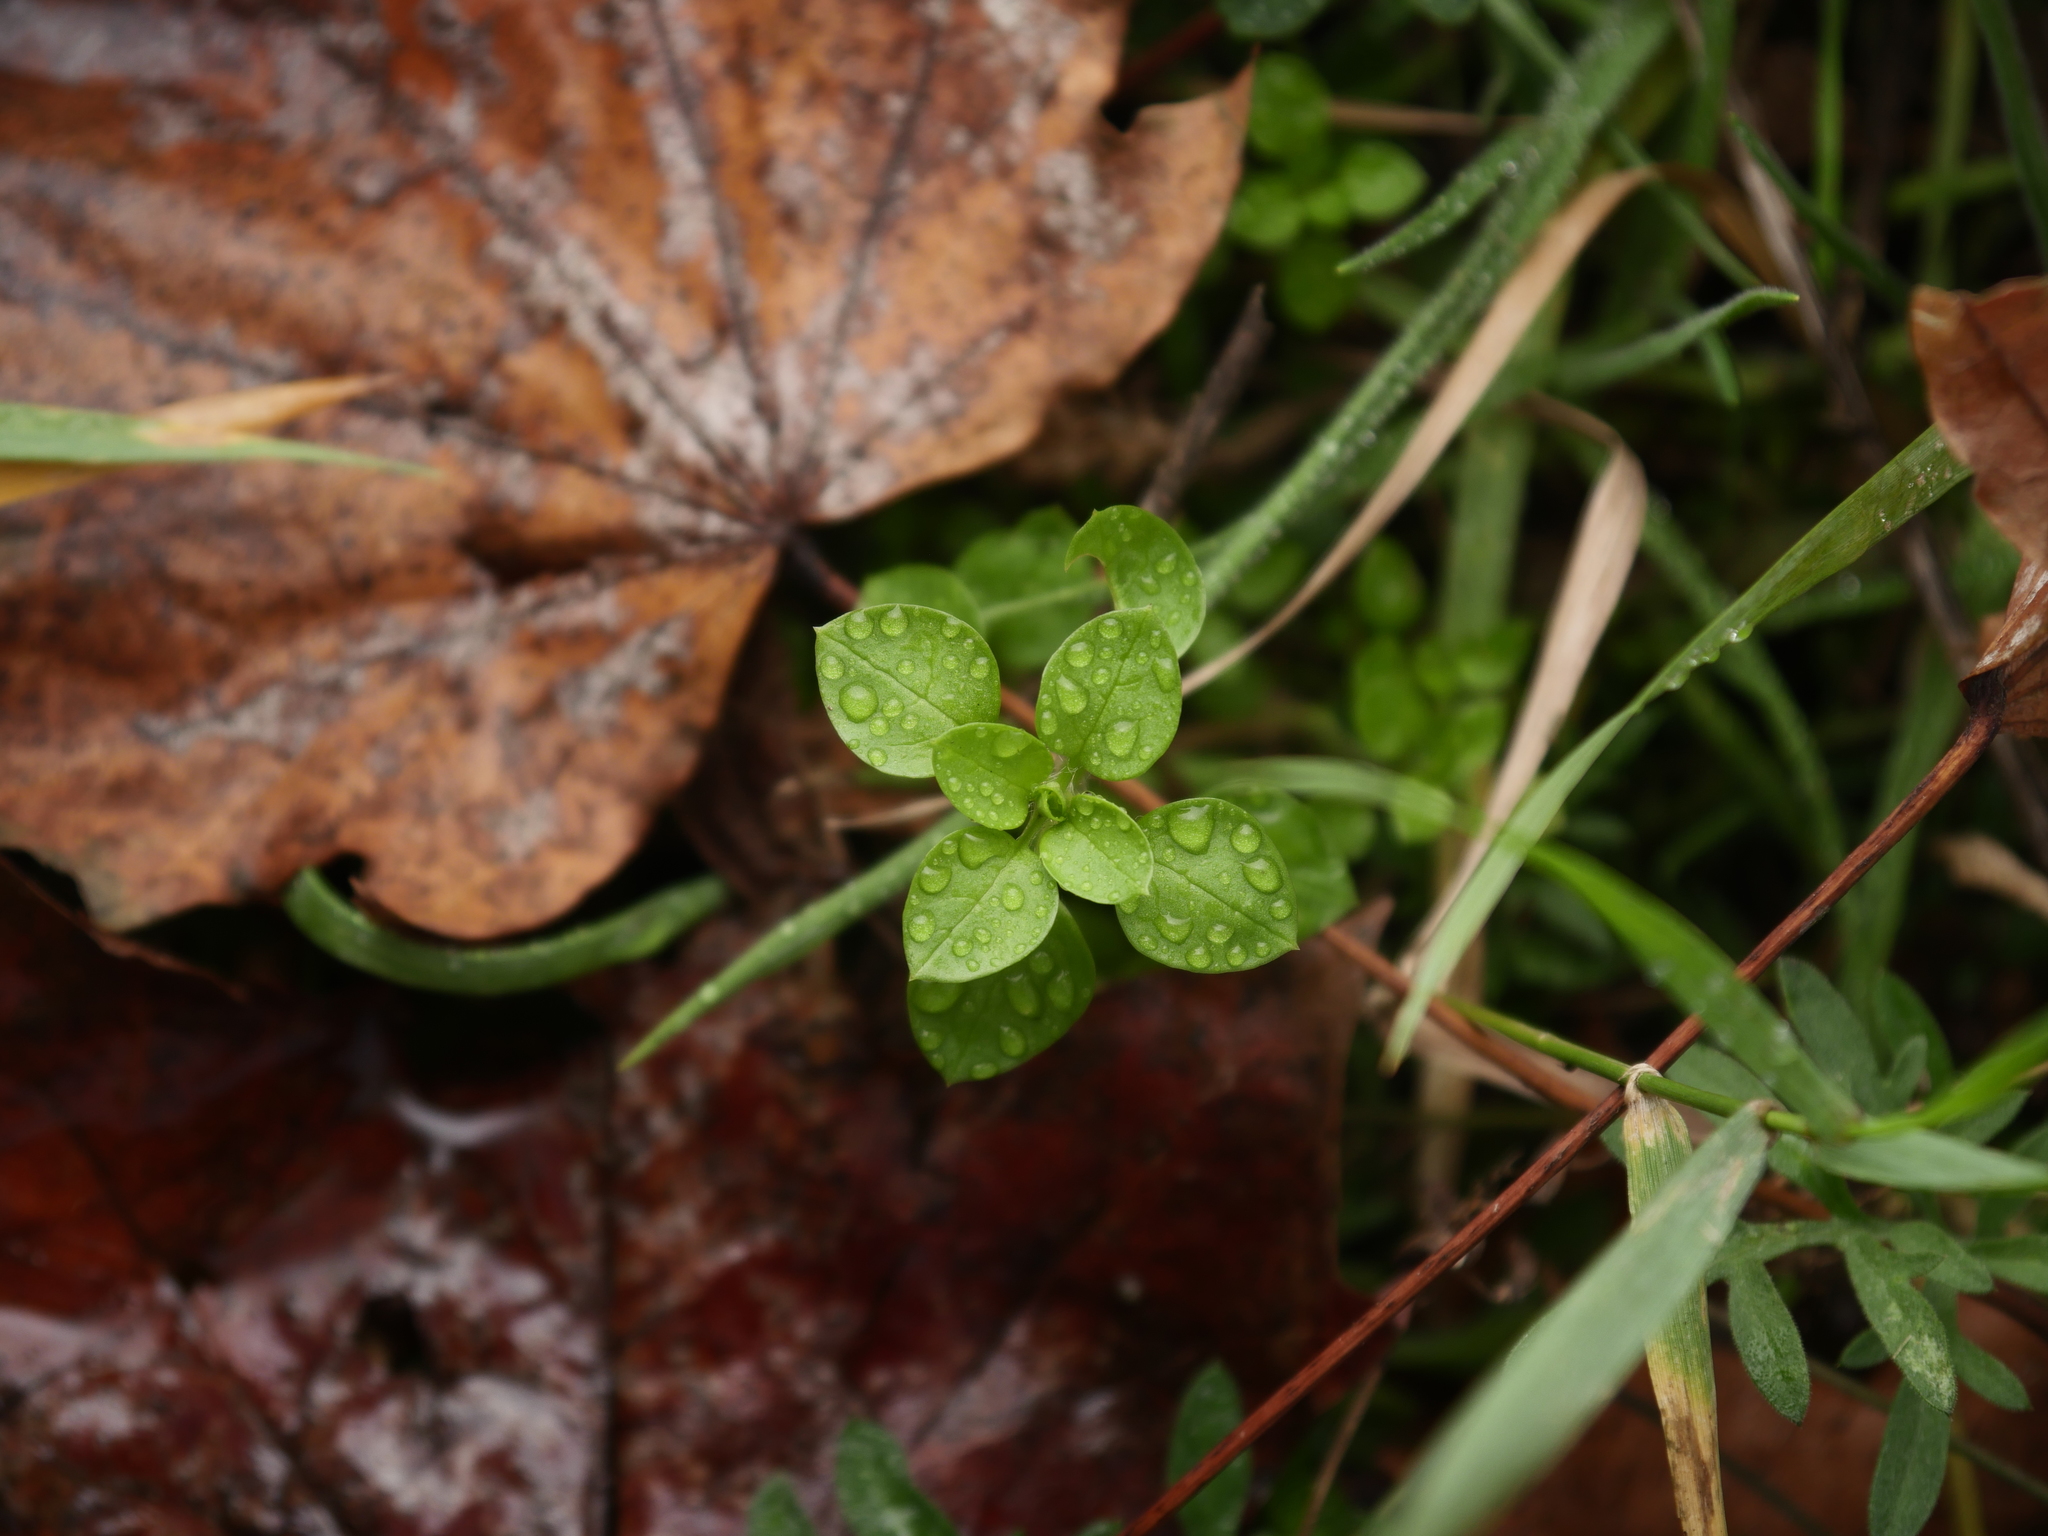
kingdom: Plantae
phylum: Tracheophyta
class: Magnoliopsida
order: Caryophyllales
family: Caryophyllaceae
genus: Stellaria
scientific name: Stellaria media
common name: Common chickweed
